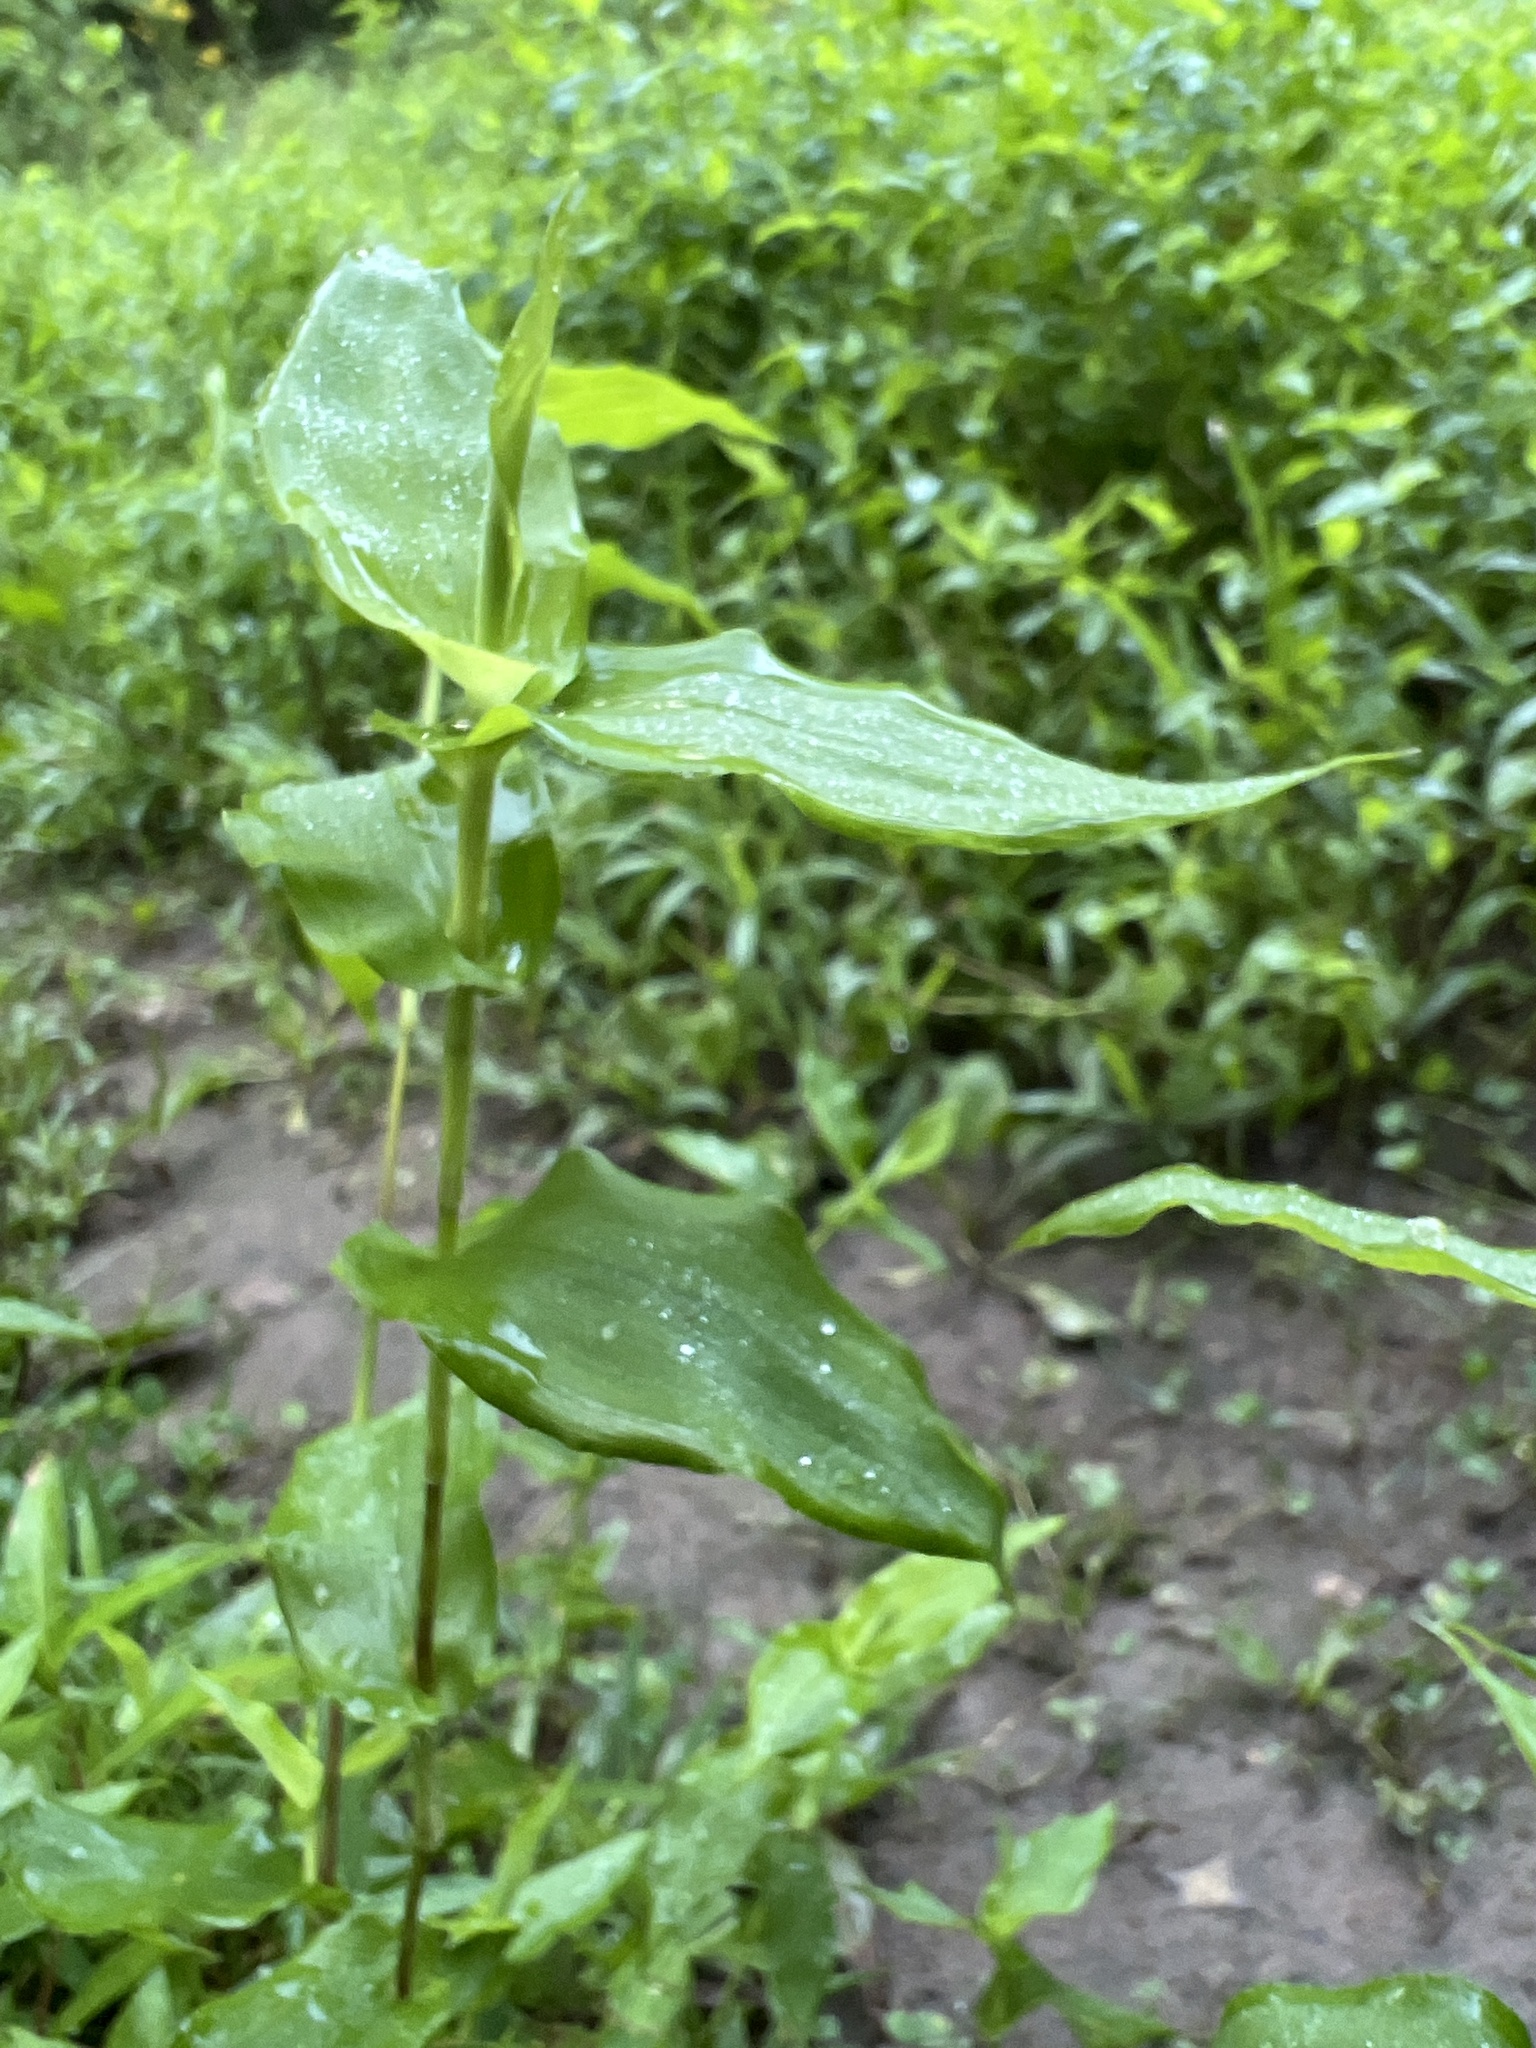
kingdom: Plantae
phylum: Tracheophyta
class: Liliopsida
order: Poales
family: Poaceae
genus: Arthraxon
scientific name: Arthraxon hispidus
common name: Small carpgrass
